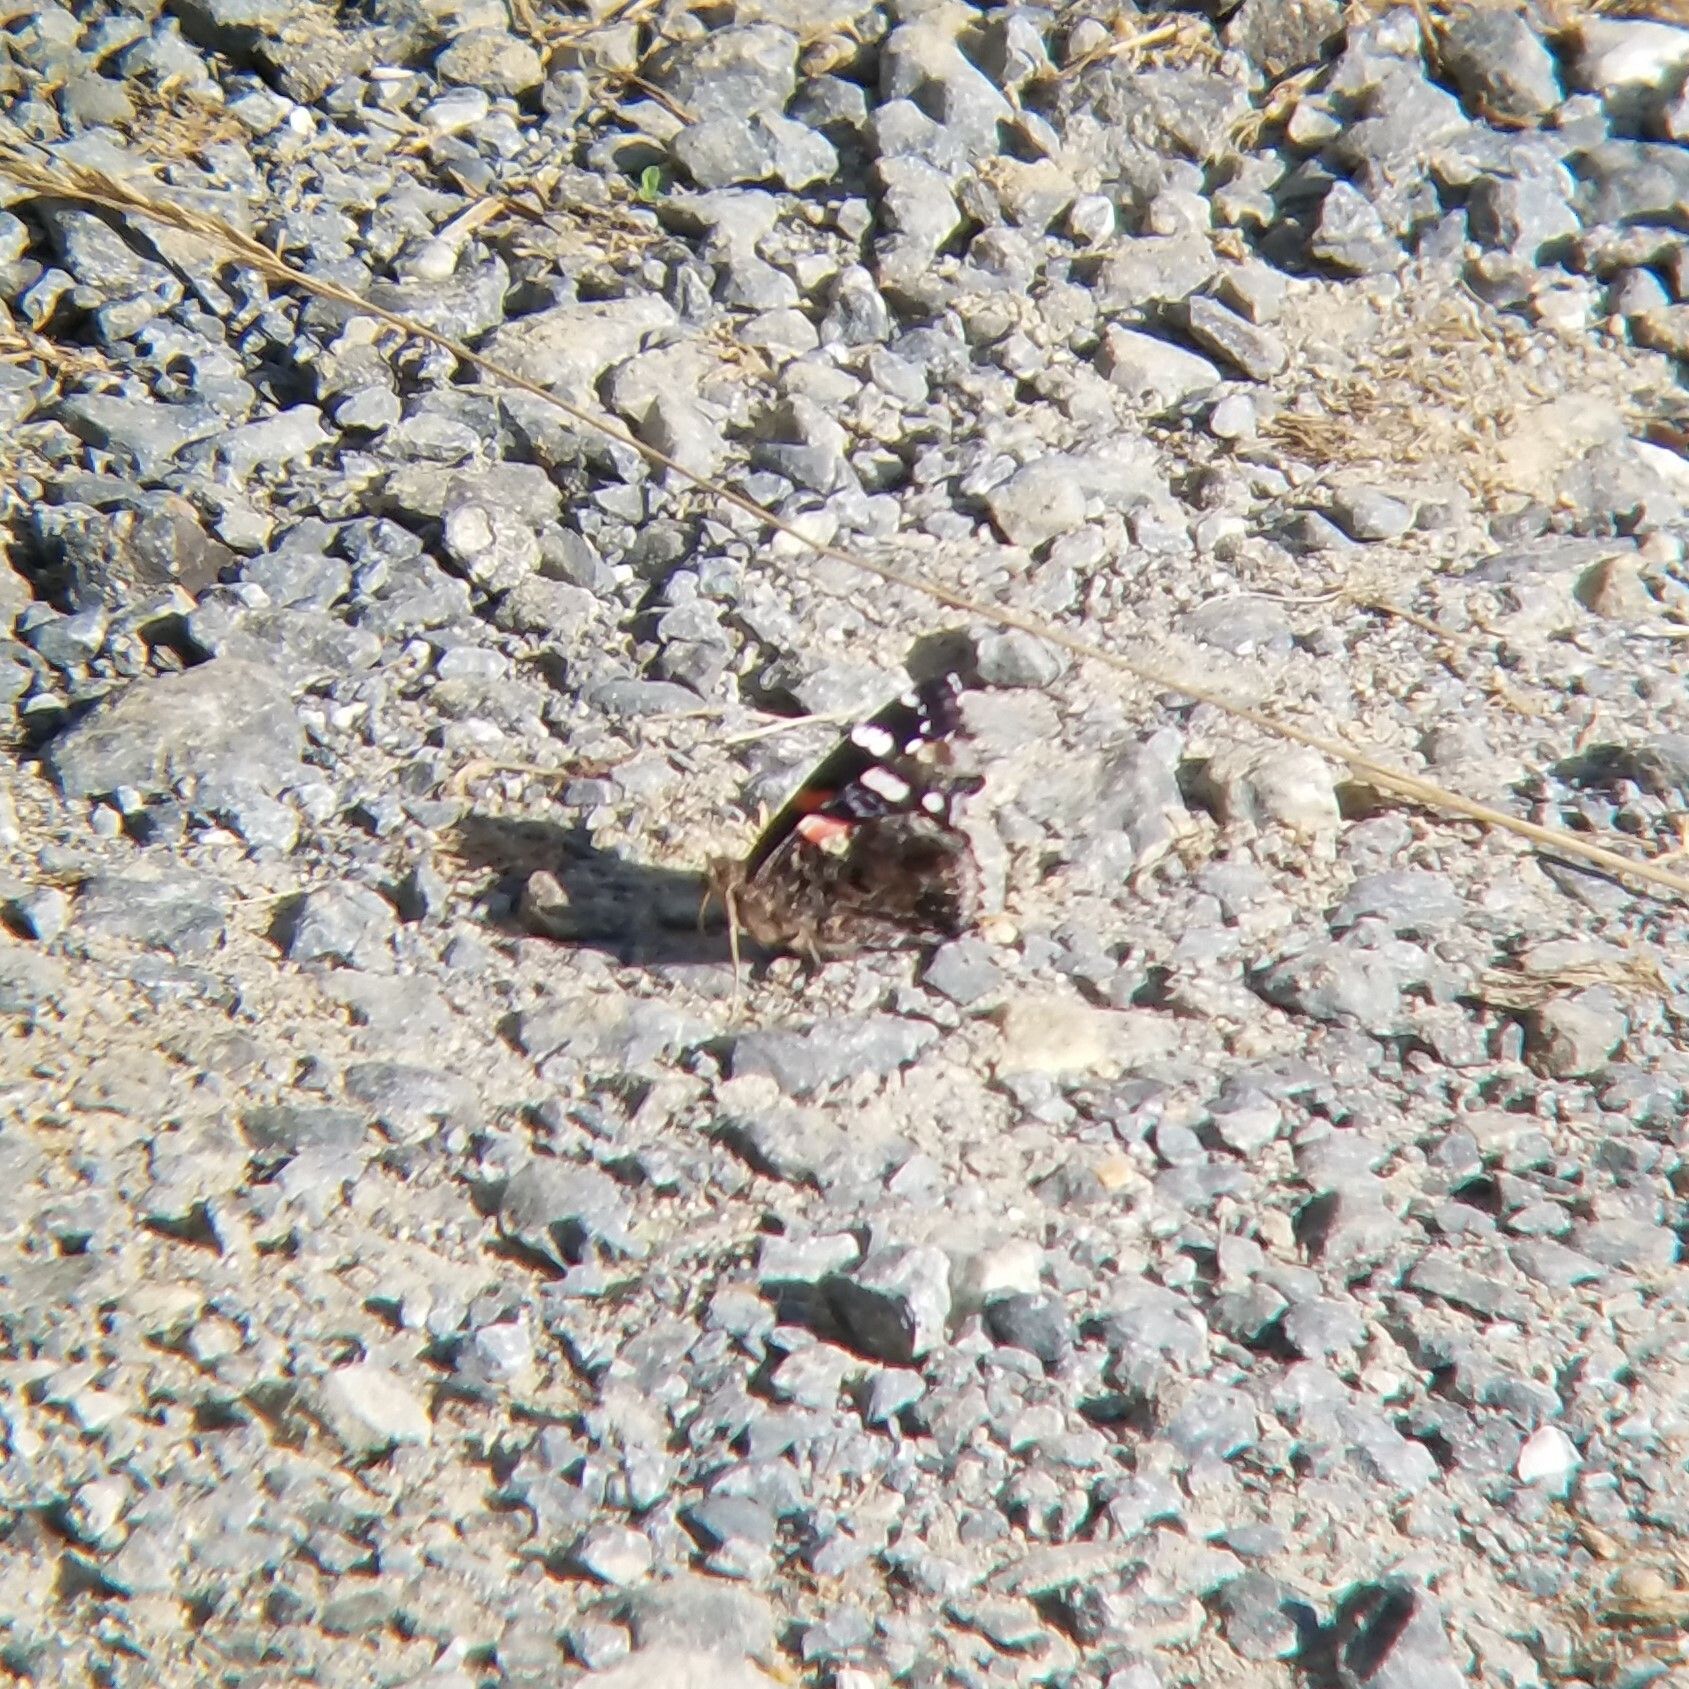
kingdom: Animalia
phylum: Arthropoda
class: Insecta
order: Lepidoptera
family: Nymphalidae
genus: Vanessa
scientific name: Vanessa atalanta
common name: Red admiral
